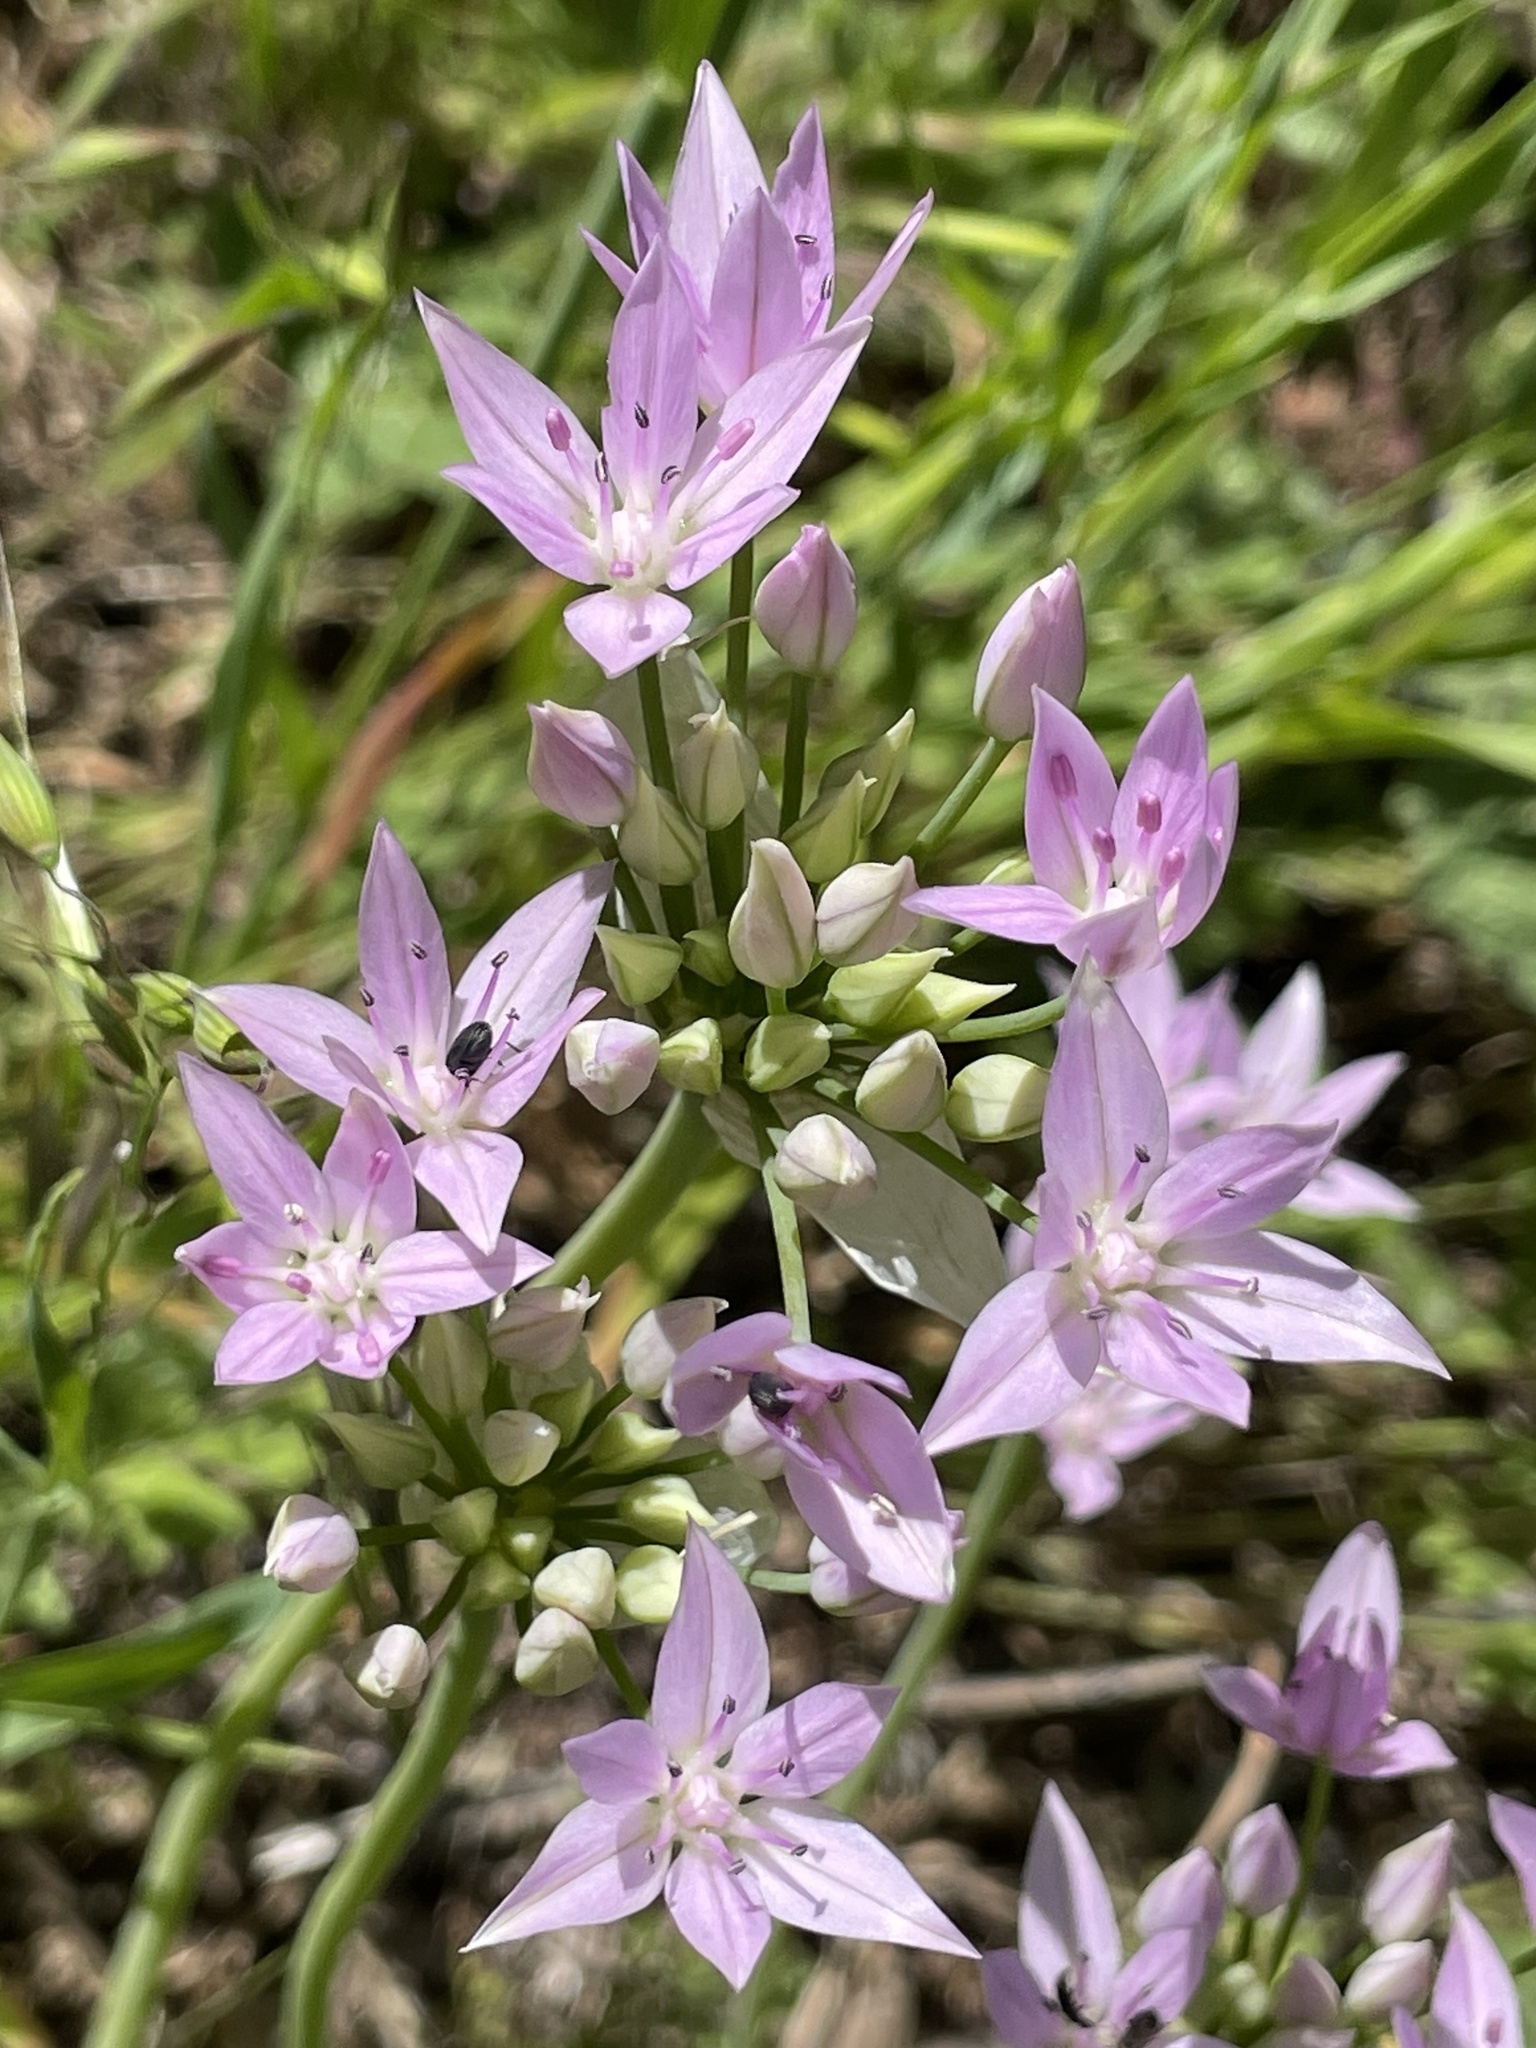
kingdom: Plantae
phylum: Tracheophyta
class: Liliopsida
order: Asparagales
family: Amaryllidaceae
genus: Allium
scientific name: Allium unifolium
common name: American garlic
